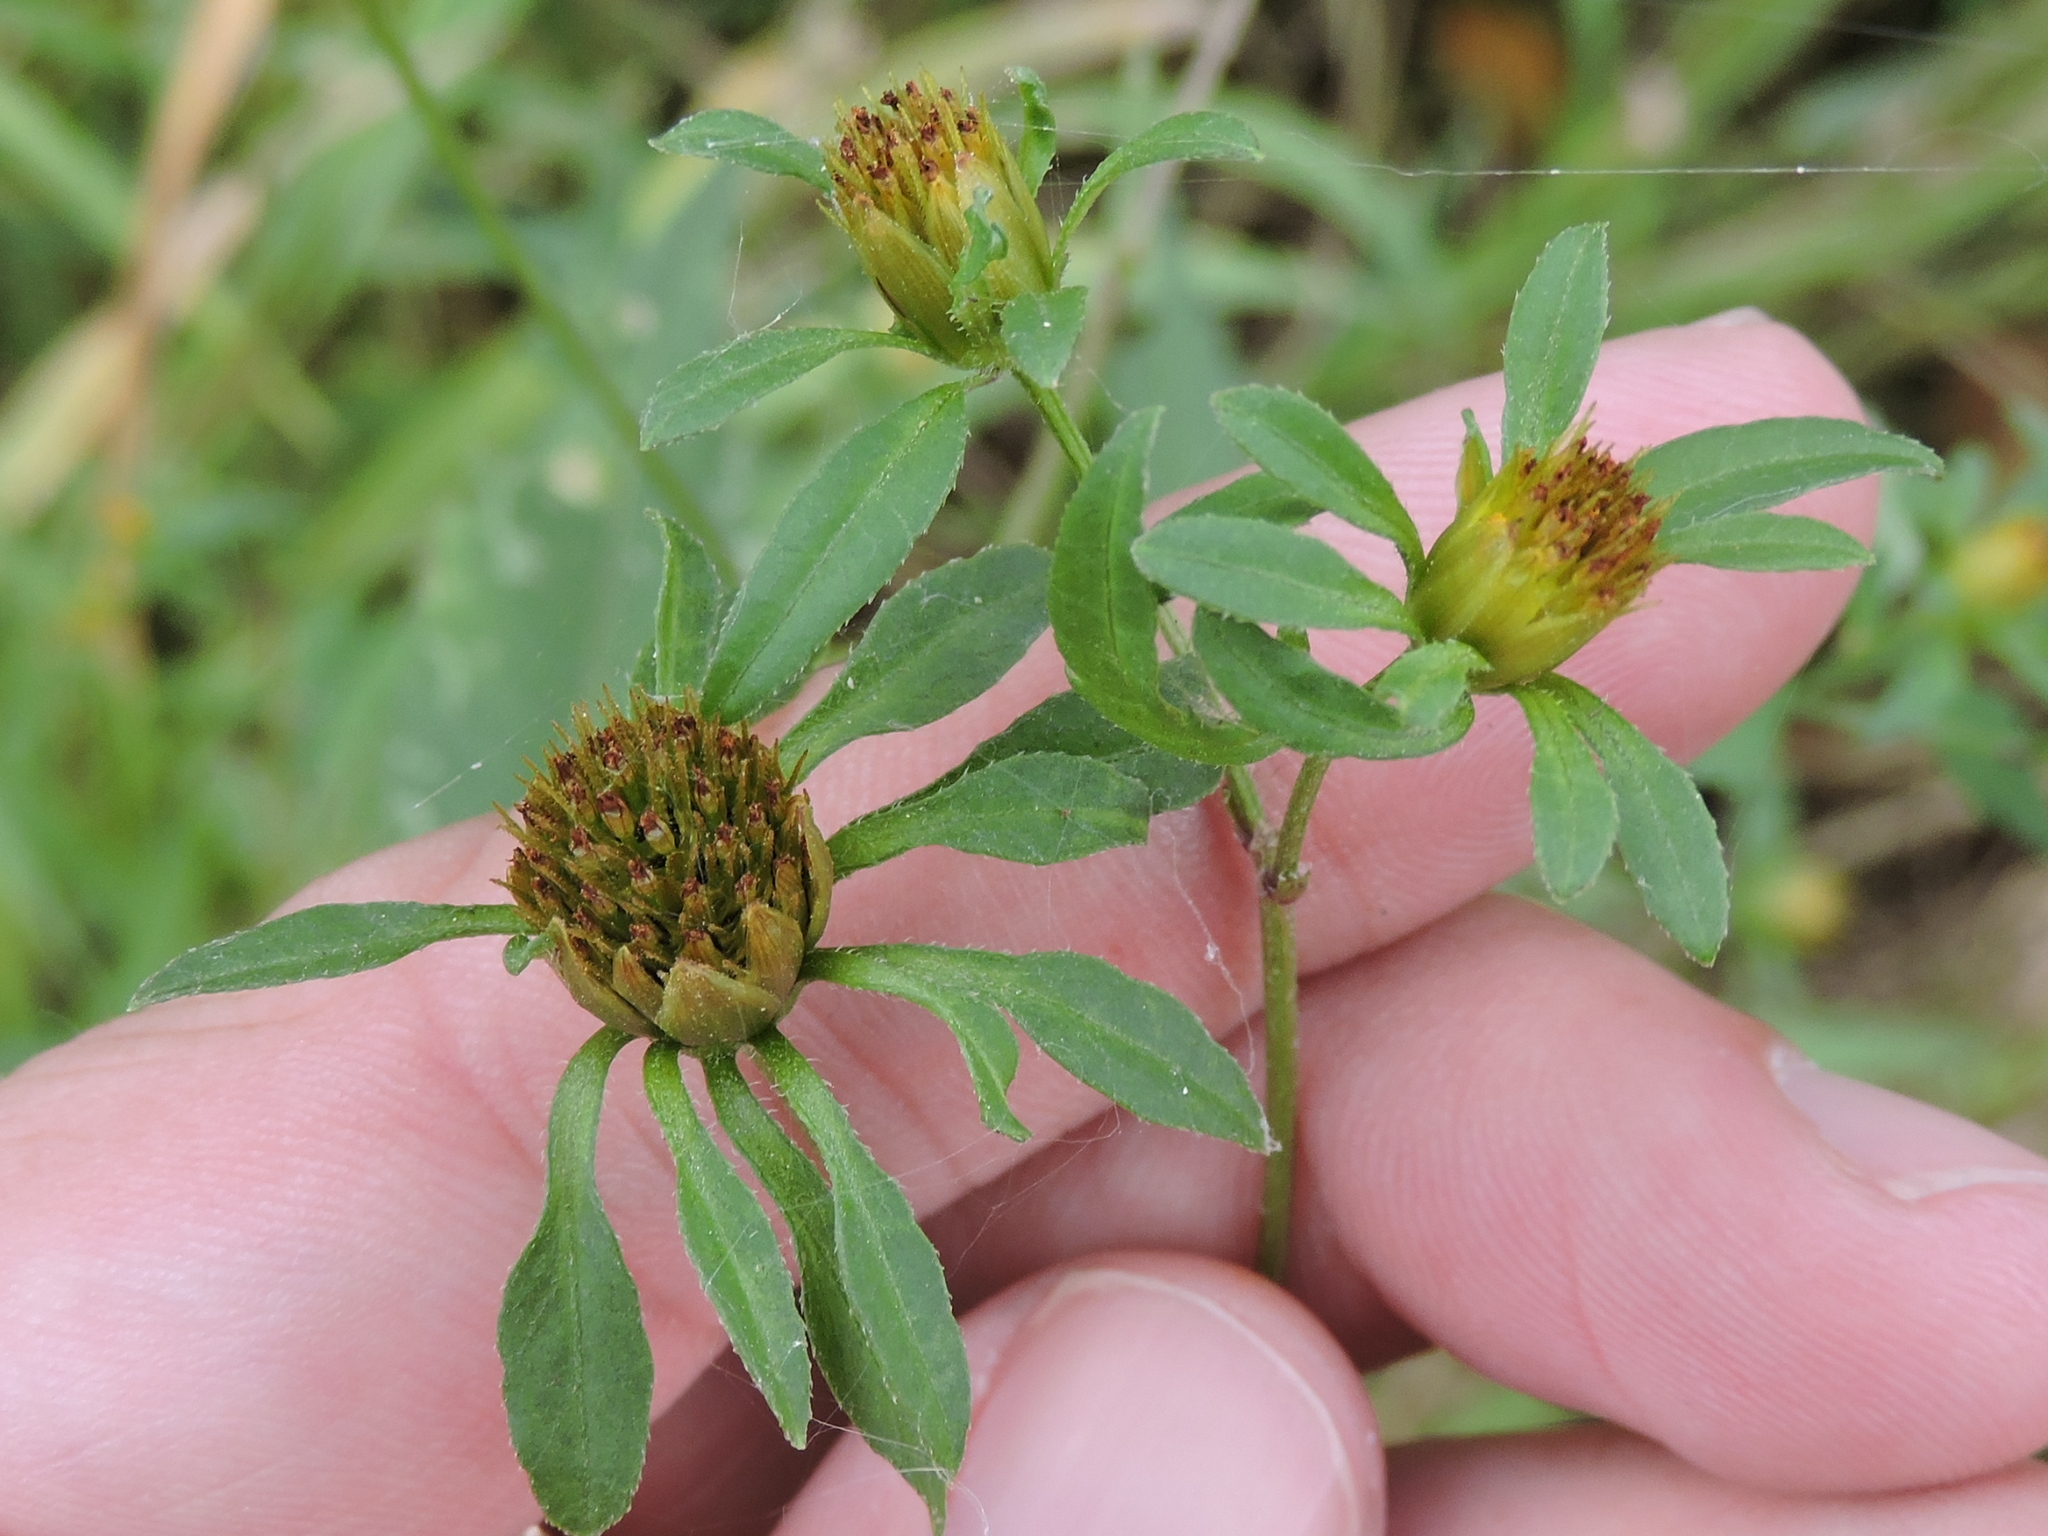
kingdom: Plantae
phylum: Tracheophyta
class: Magnoliopsida
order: Asterales
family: Asteraceae
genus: Bidens
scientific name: Bidens frondosa
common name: Beggarticks
